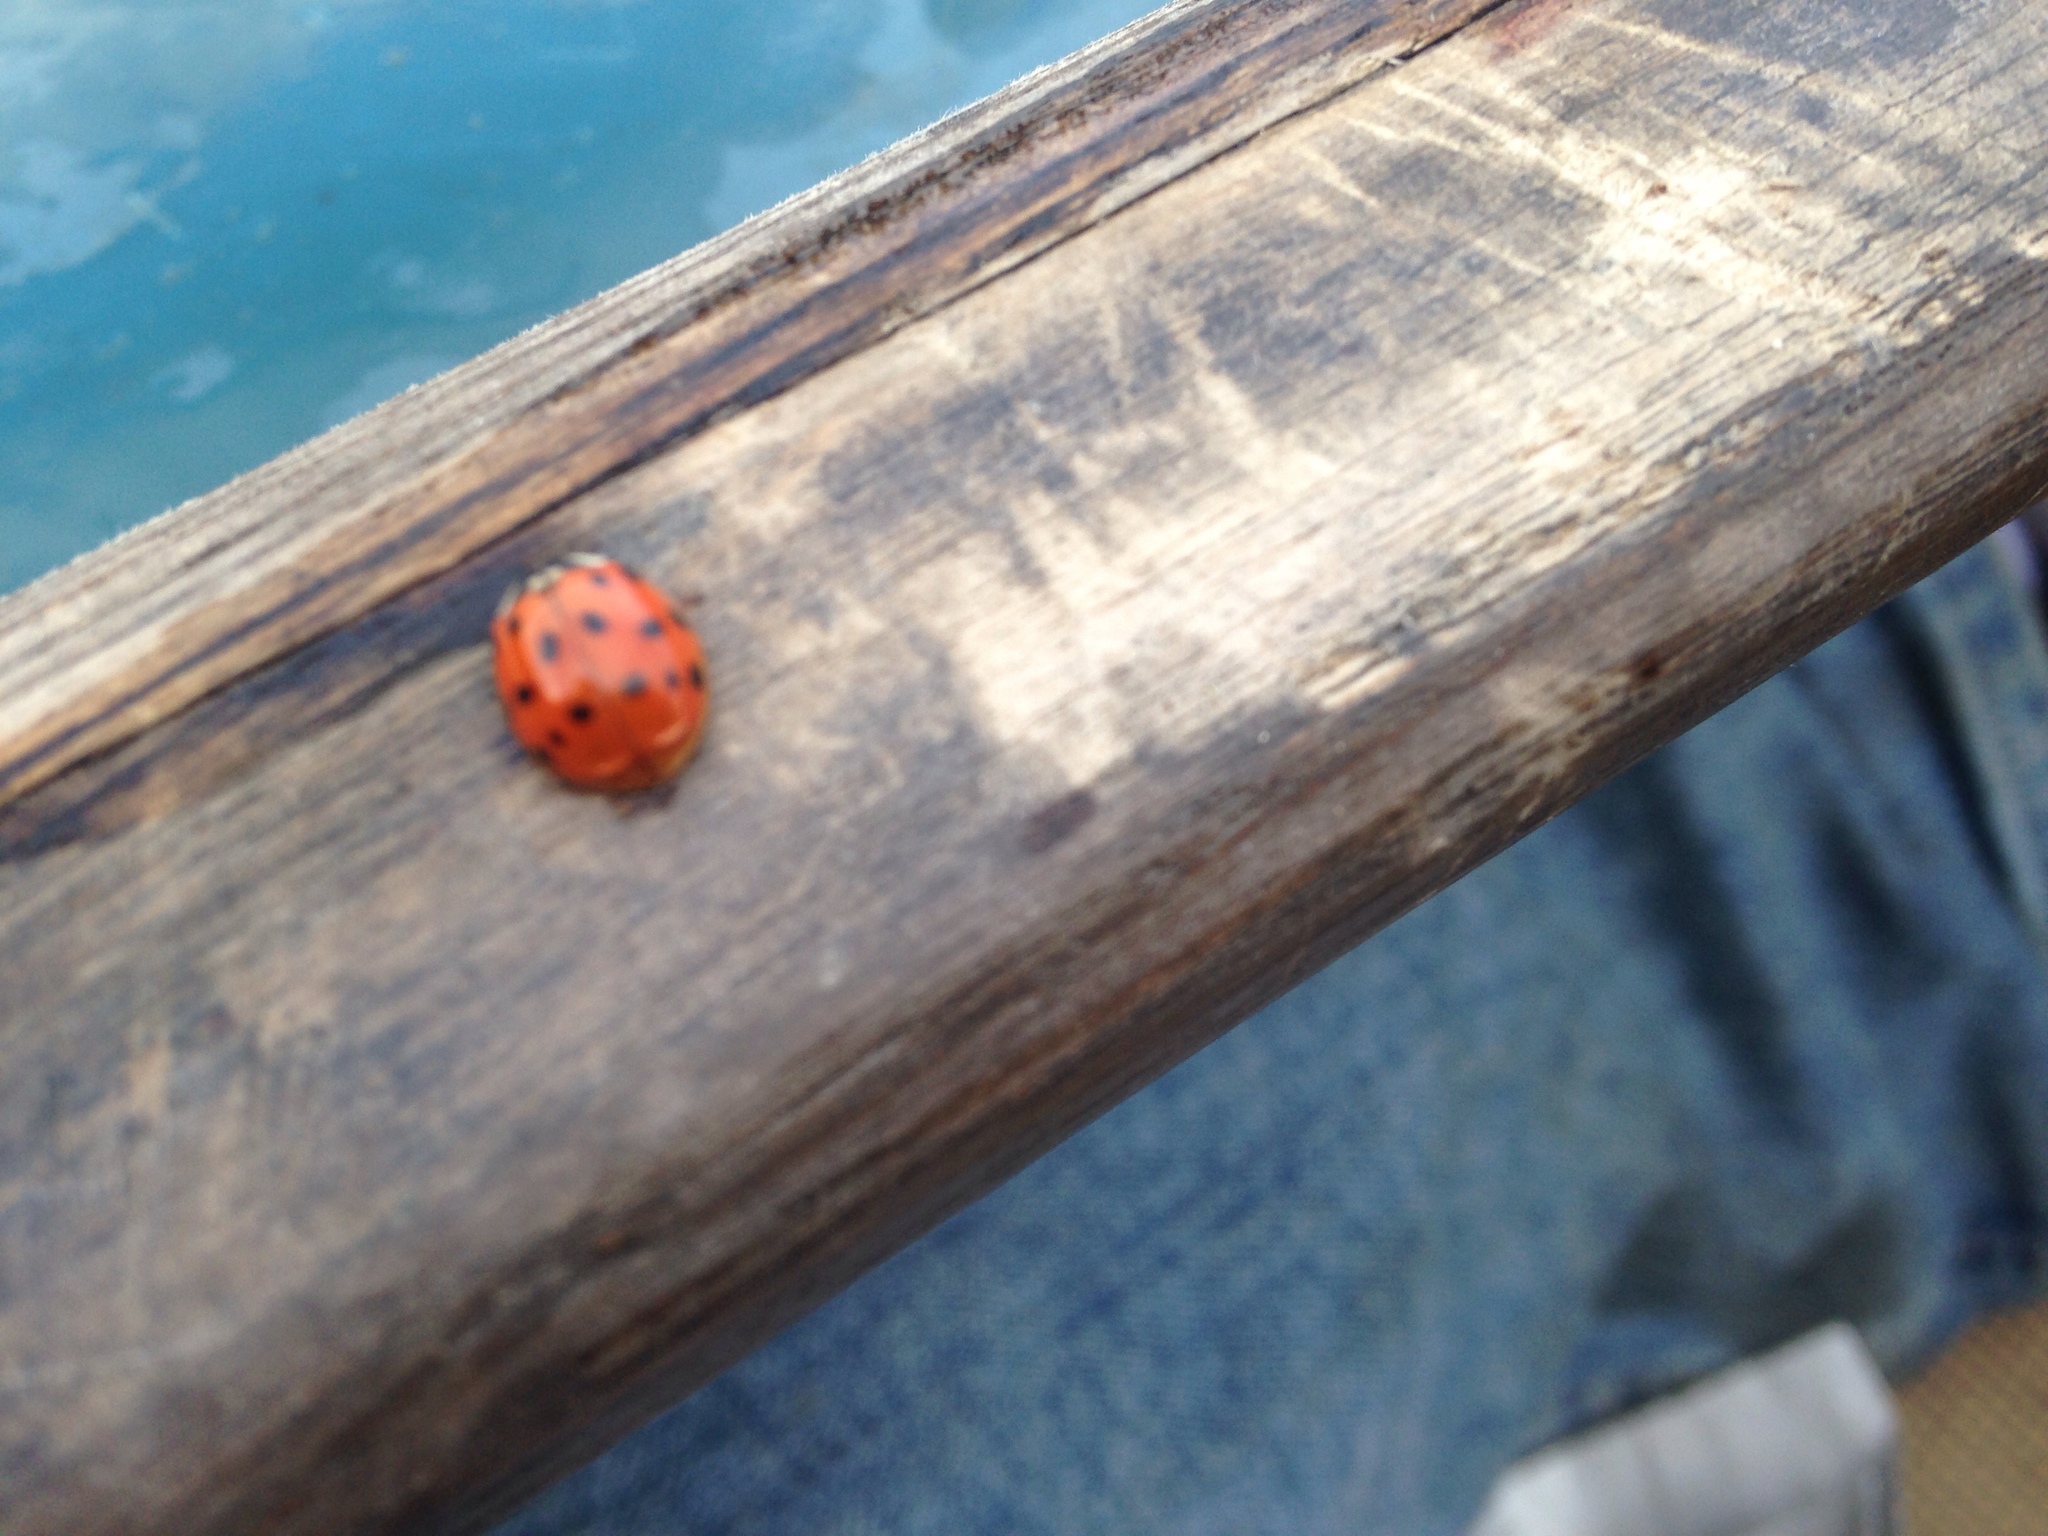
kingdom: Animalia
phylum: Arthropoda
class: Insecta
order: Coleoptera
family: Coccinellidae
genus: Harmonia
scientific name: Harmonia axyridis
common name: Harlequin ladybird
